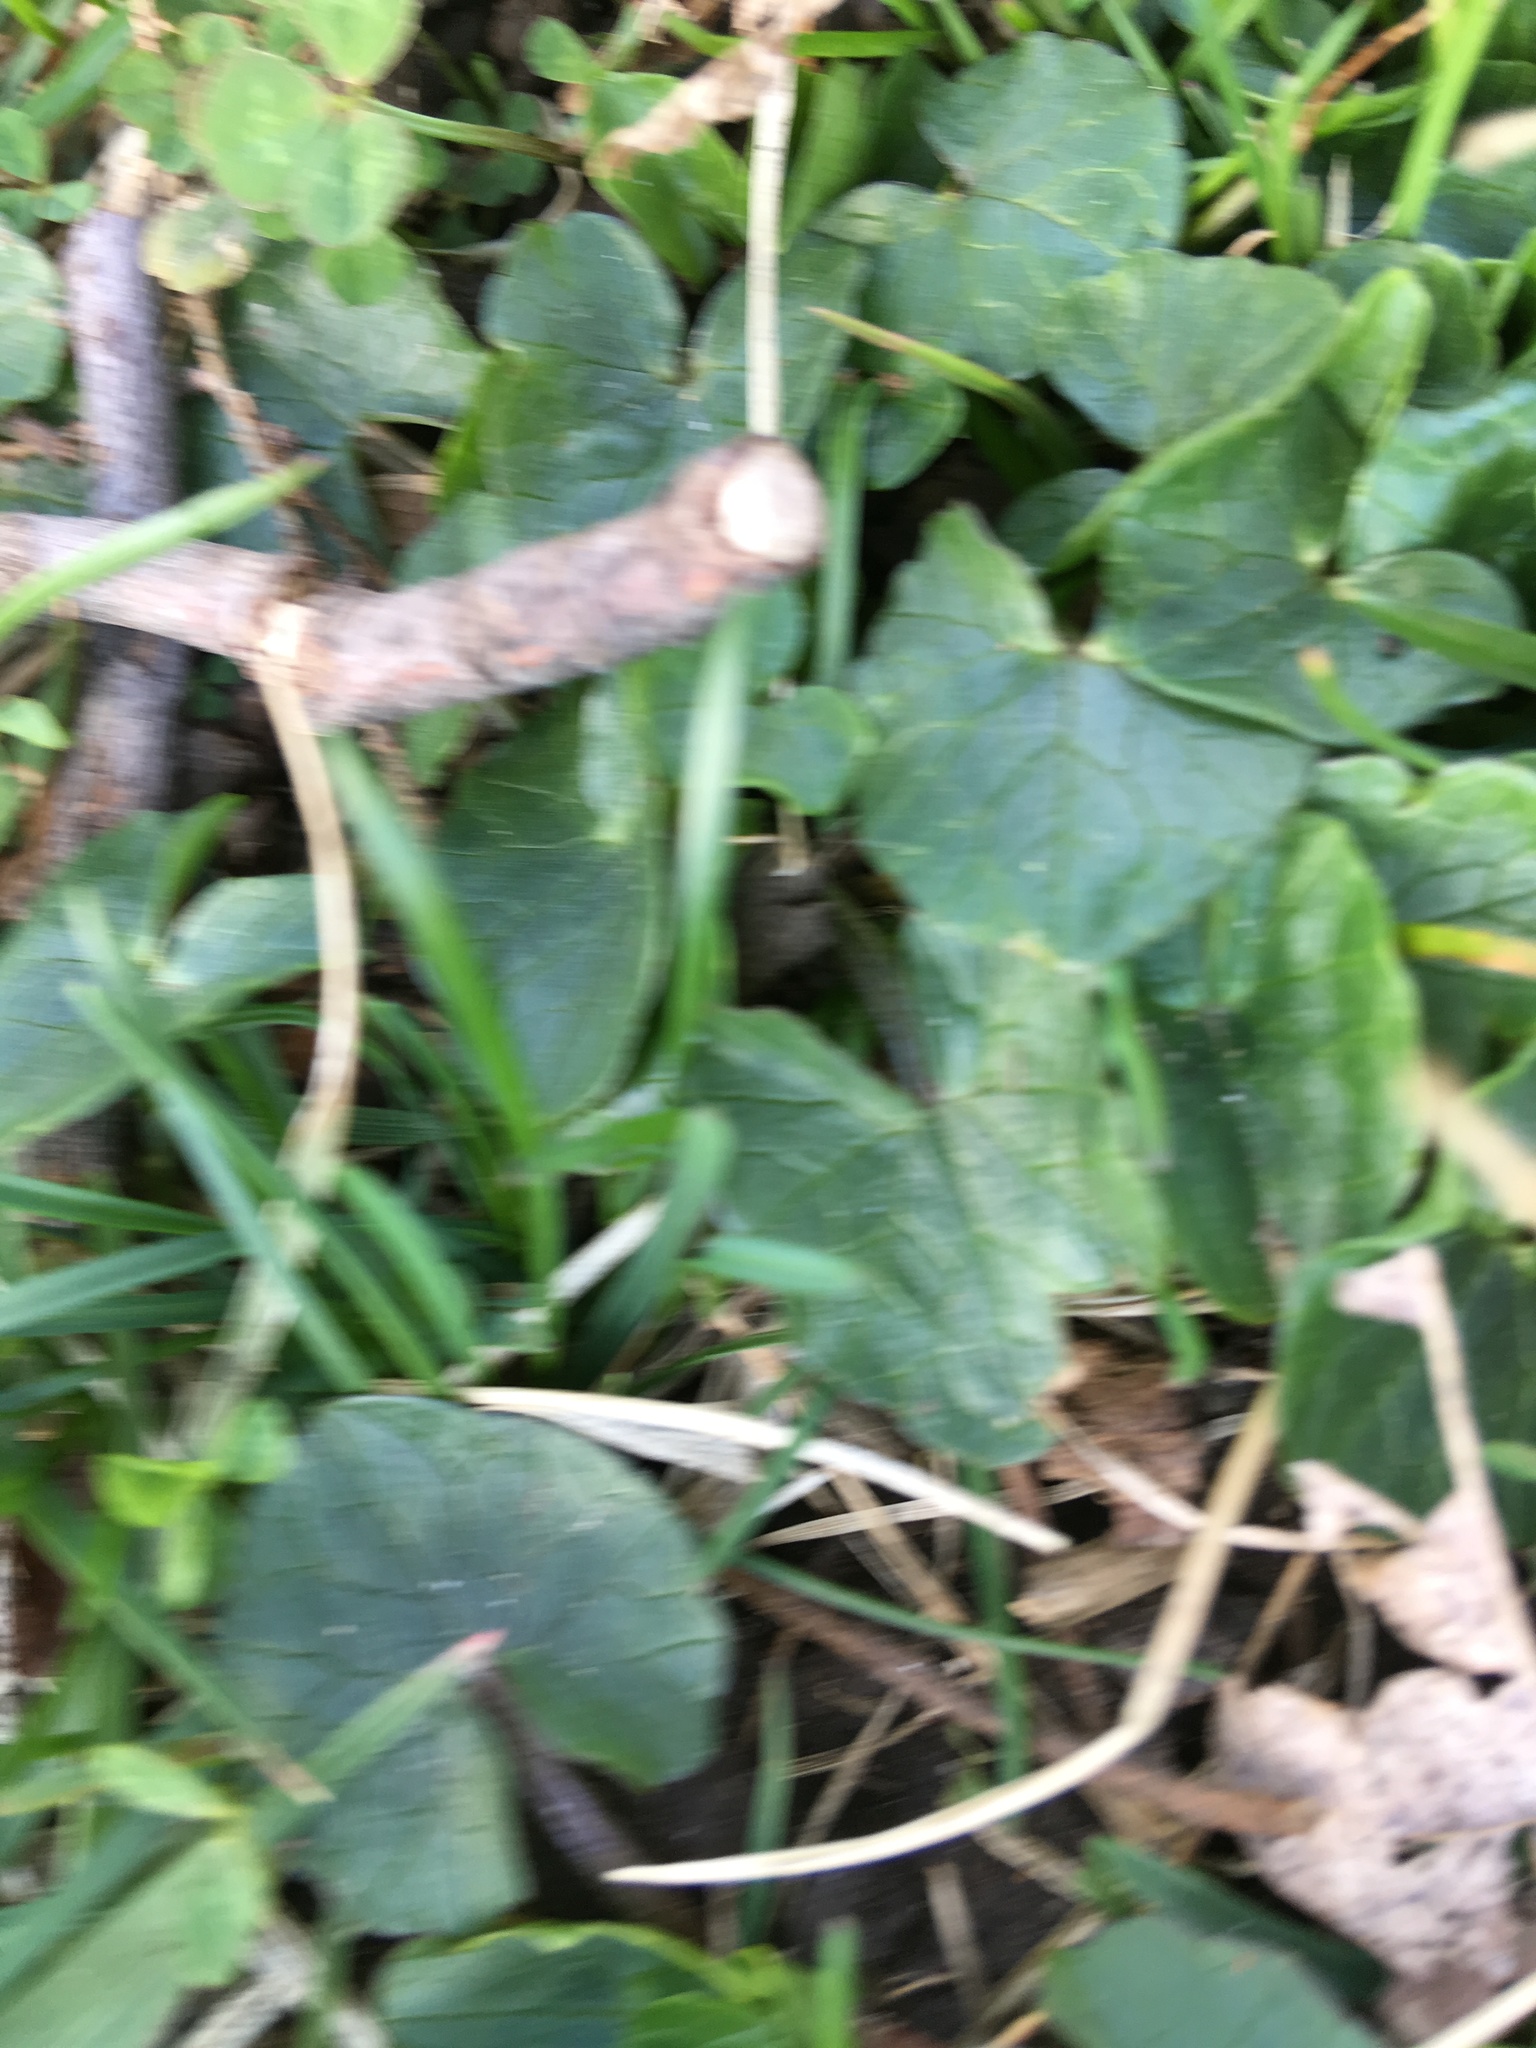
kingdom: Plantae
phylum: Tracheophyta
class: Magnoliopsida
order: Ranunculales
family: Ranunculaceae
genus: Ficaria
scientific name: Ficaria verna
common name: Lesser celandine
